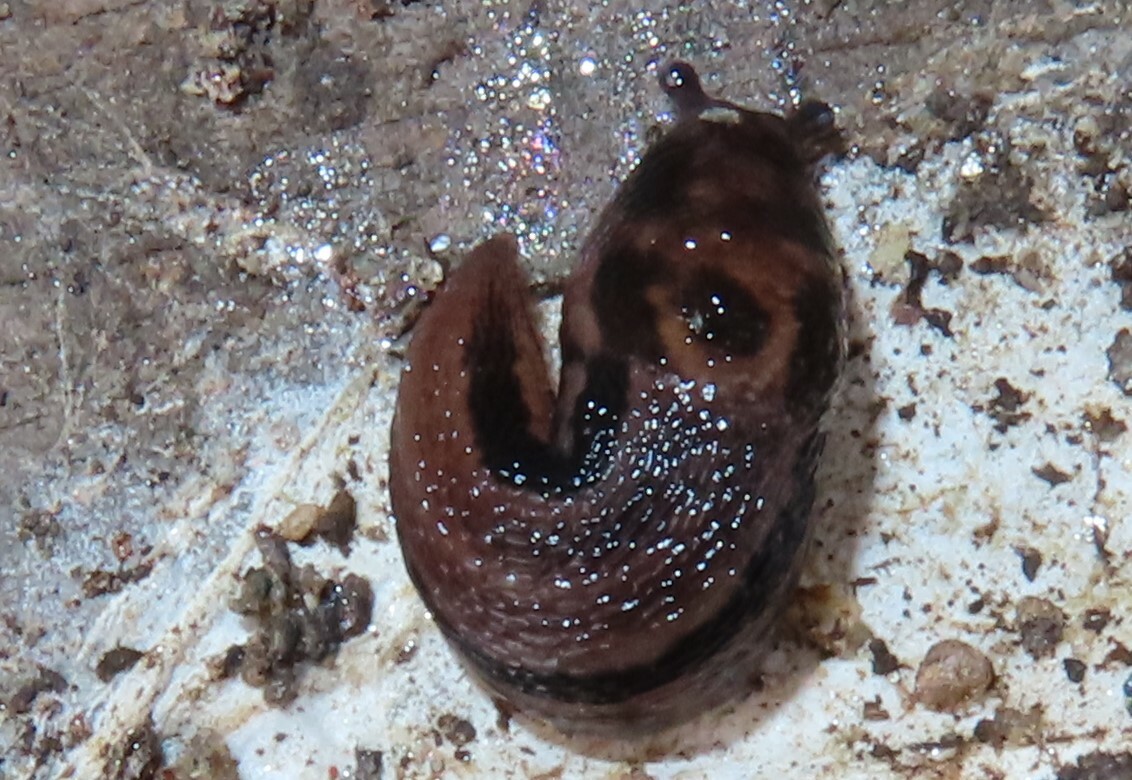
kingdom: Animalia
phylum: Mollusca
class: Gastropoda
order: Stylommatophora
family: Limacidae
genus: Limax
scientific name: Limax maximus
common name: Great grey slug
